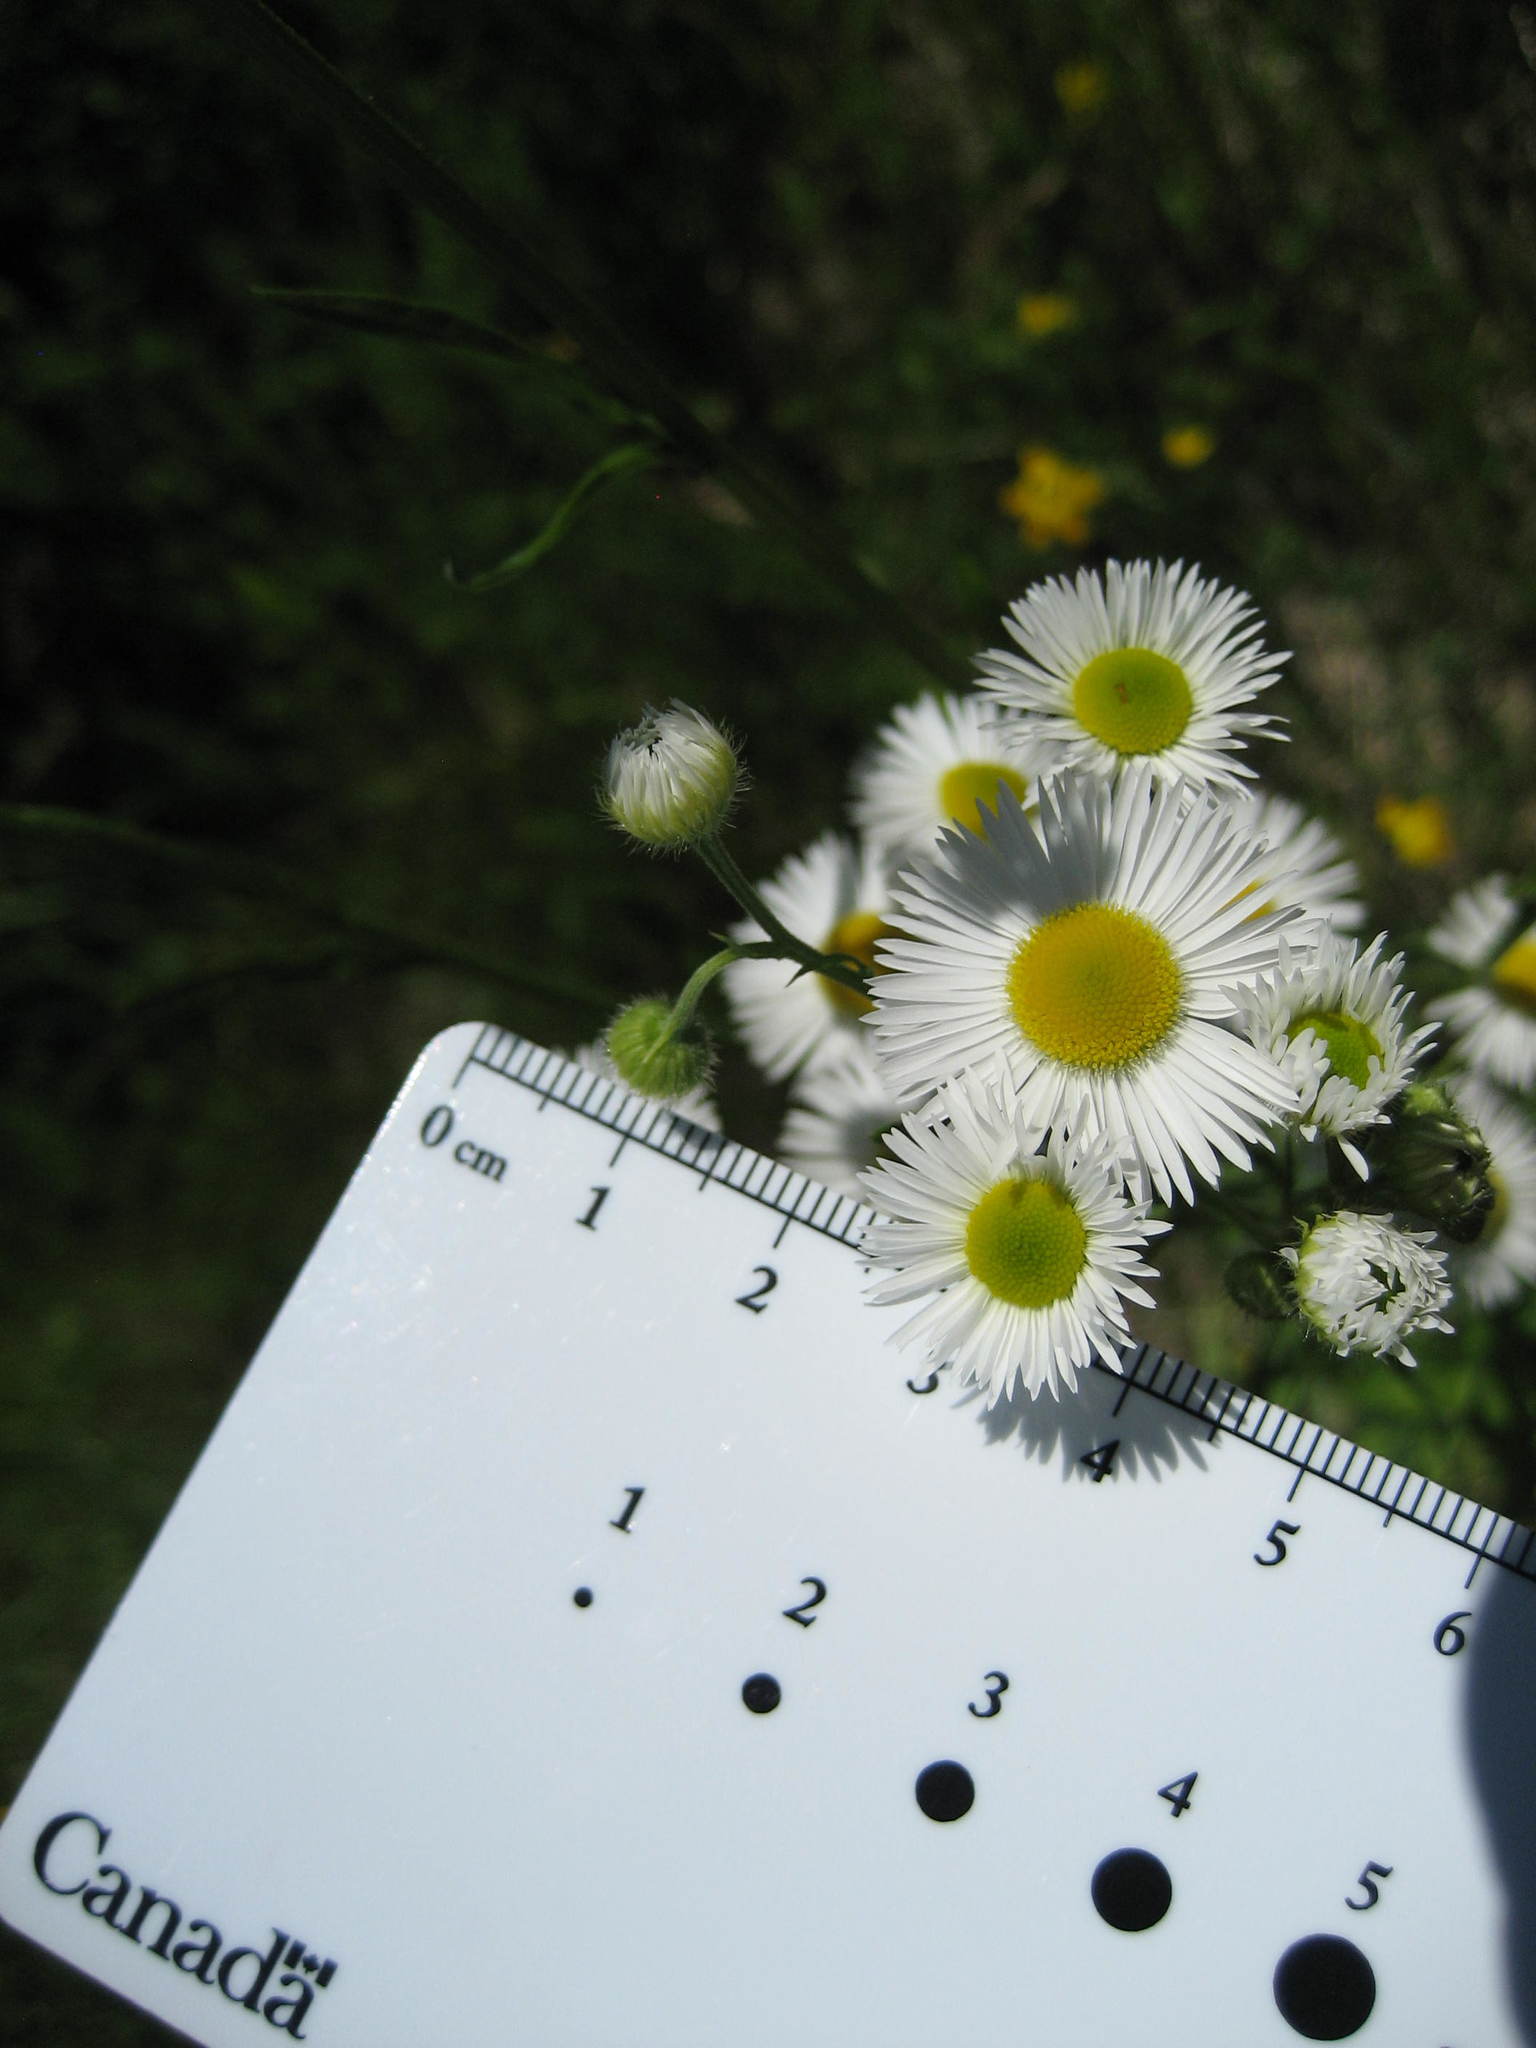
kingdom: Plantae
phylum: Tracheophyta
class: Magnoliopsida
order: Asterales
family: Asteraceae
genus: Erigeron
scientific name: Erigeron annuus
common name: Tall fleabane
